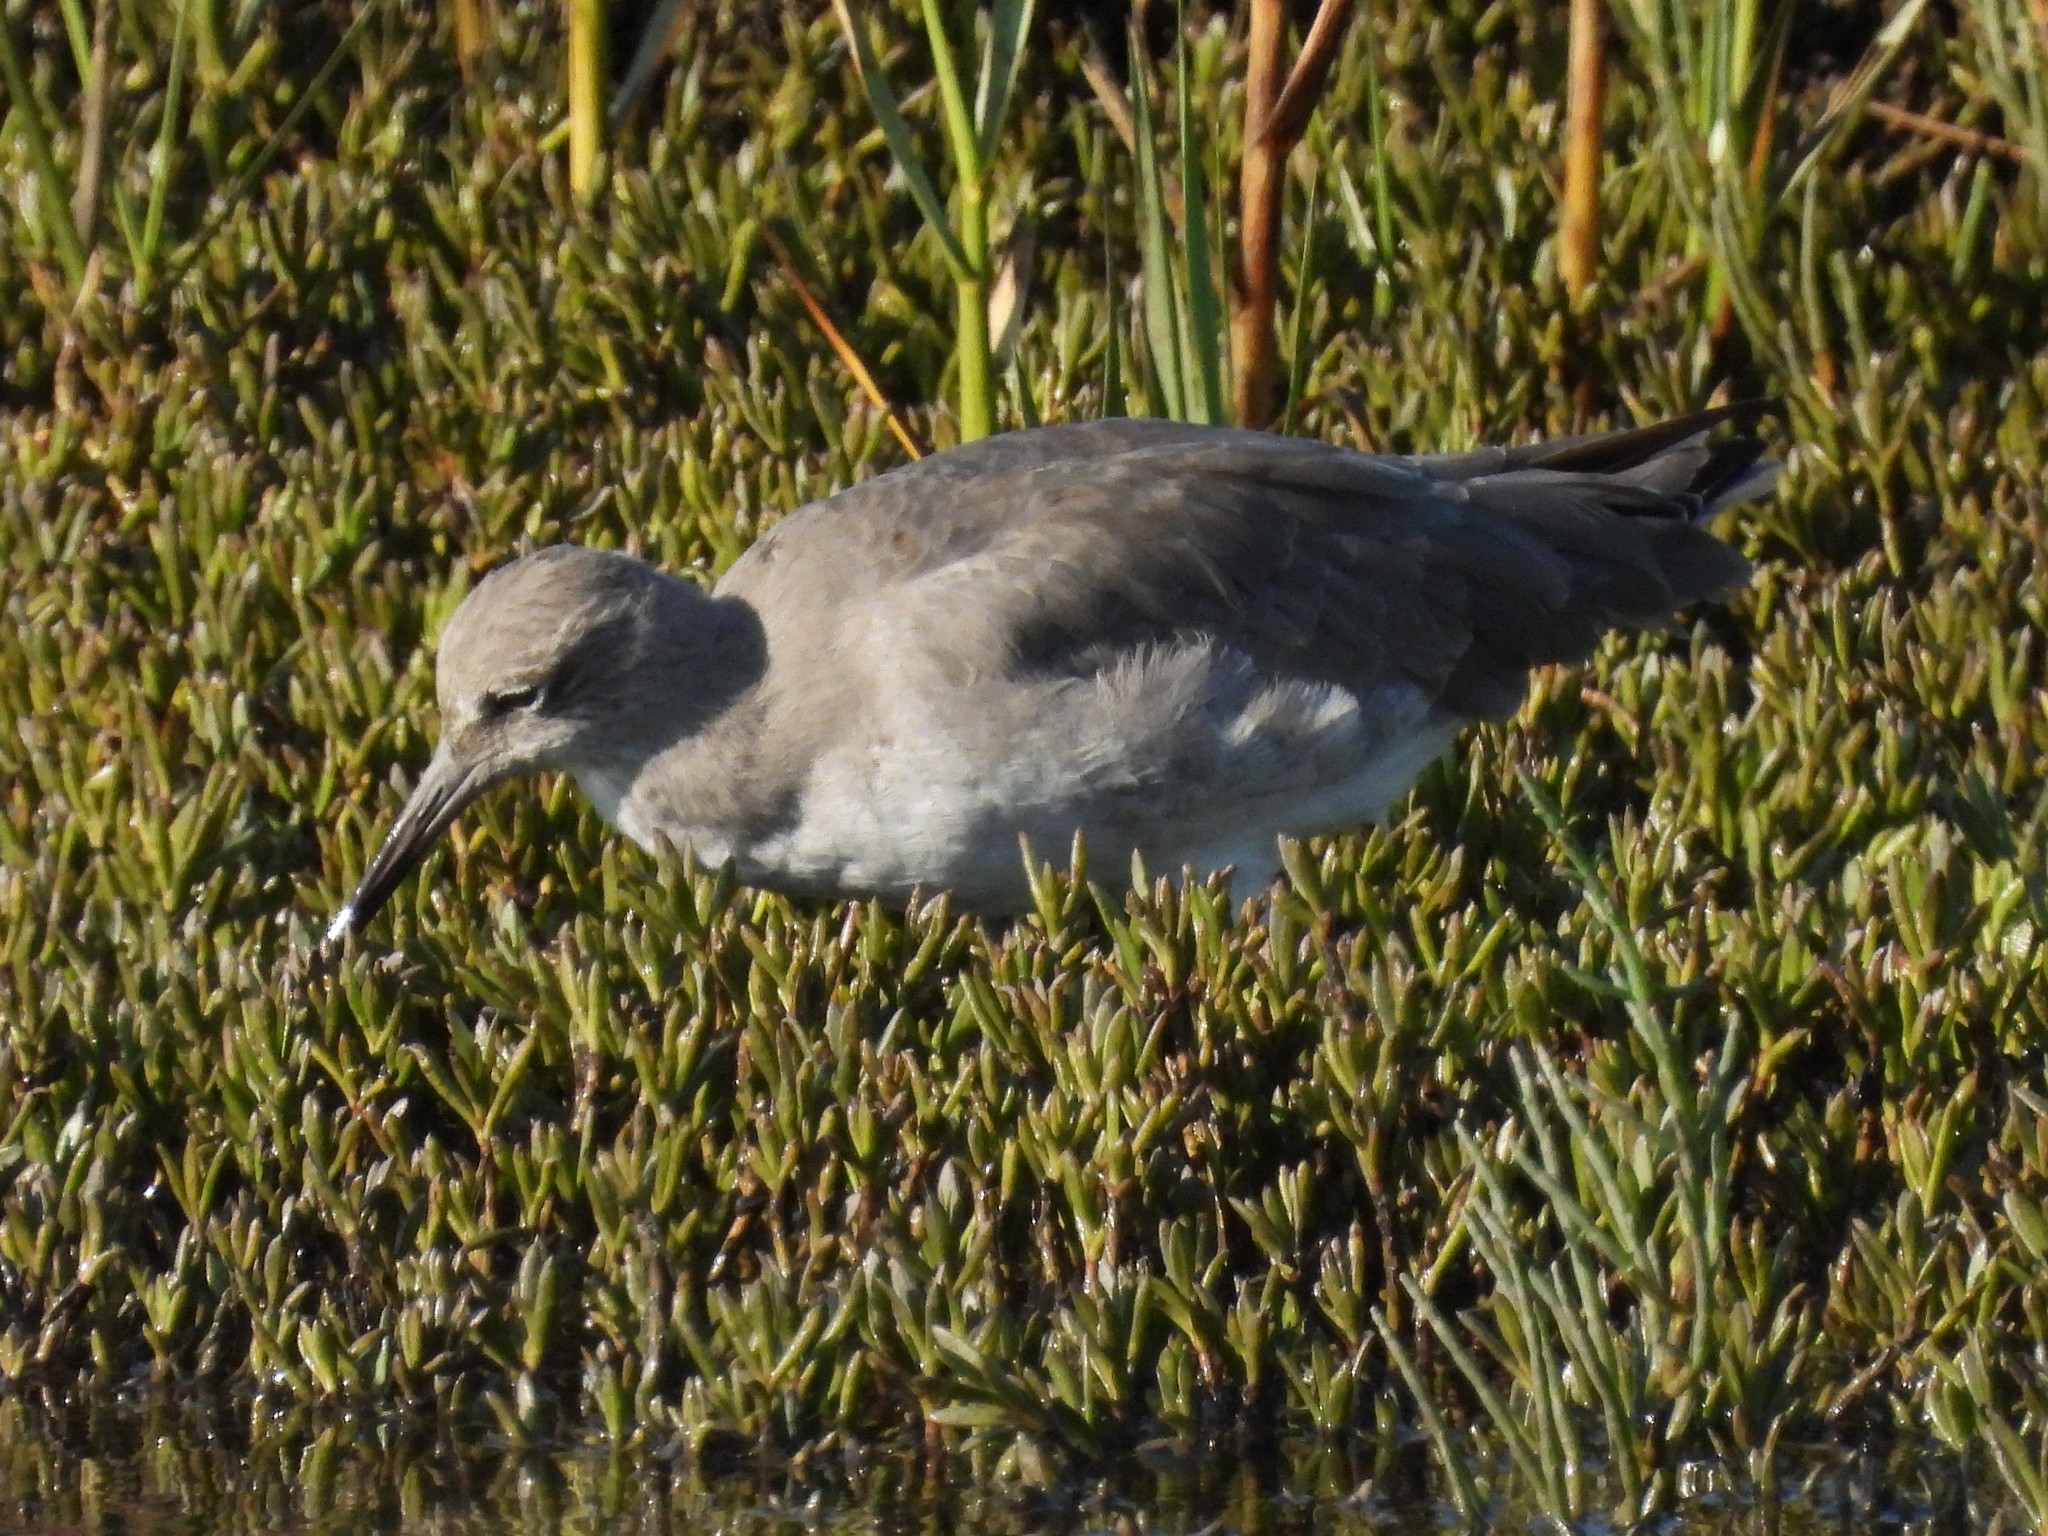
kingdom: Animalia
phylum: Chordata
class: Aves
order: Charadriiformes
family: Scolopacidae
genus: Tringa
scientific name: Tringa semipalmata
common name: Willet
